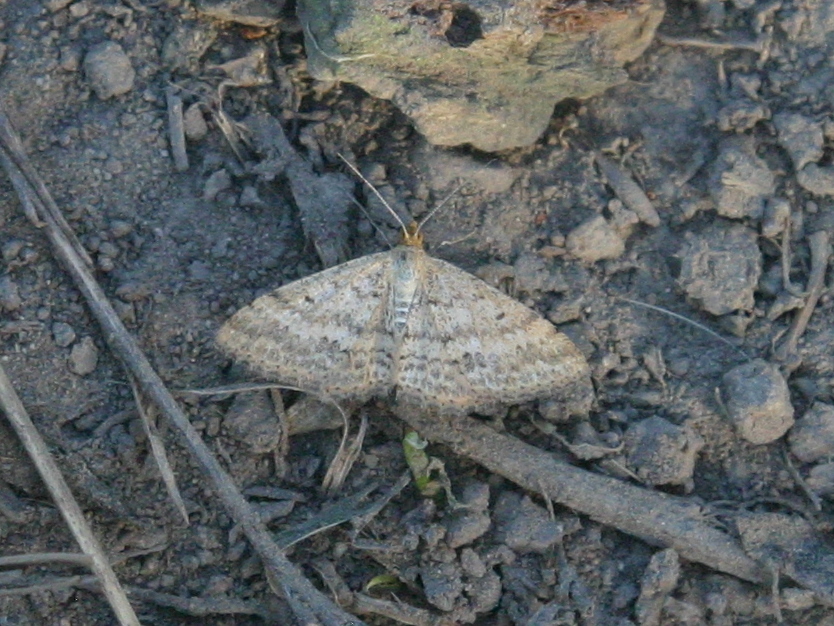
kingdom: Animalia
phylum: Arthropoda
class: Insecta
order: Lepidoptera
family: Geometridae
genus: Scopula
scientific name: Scopula rubraria
